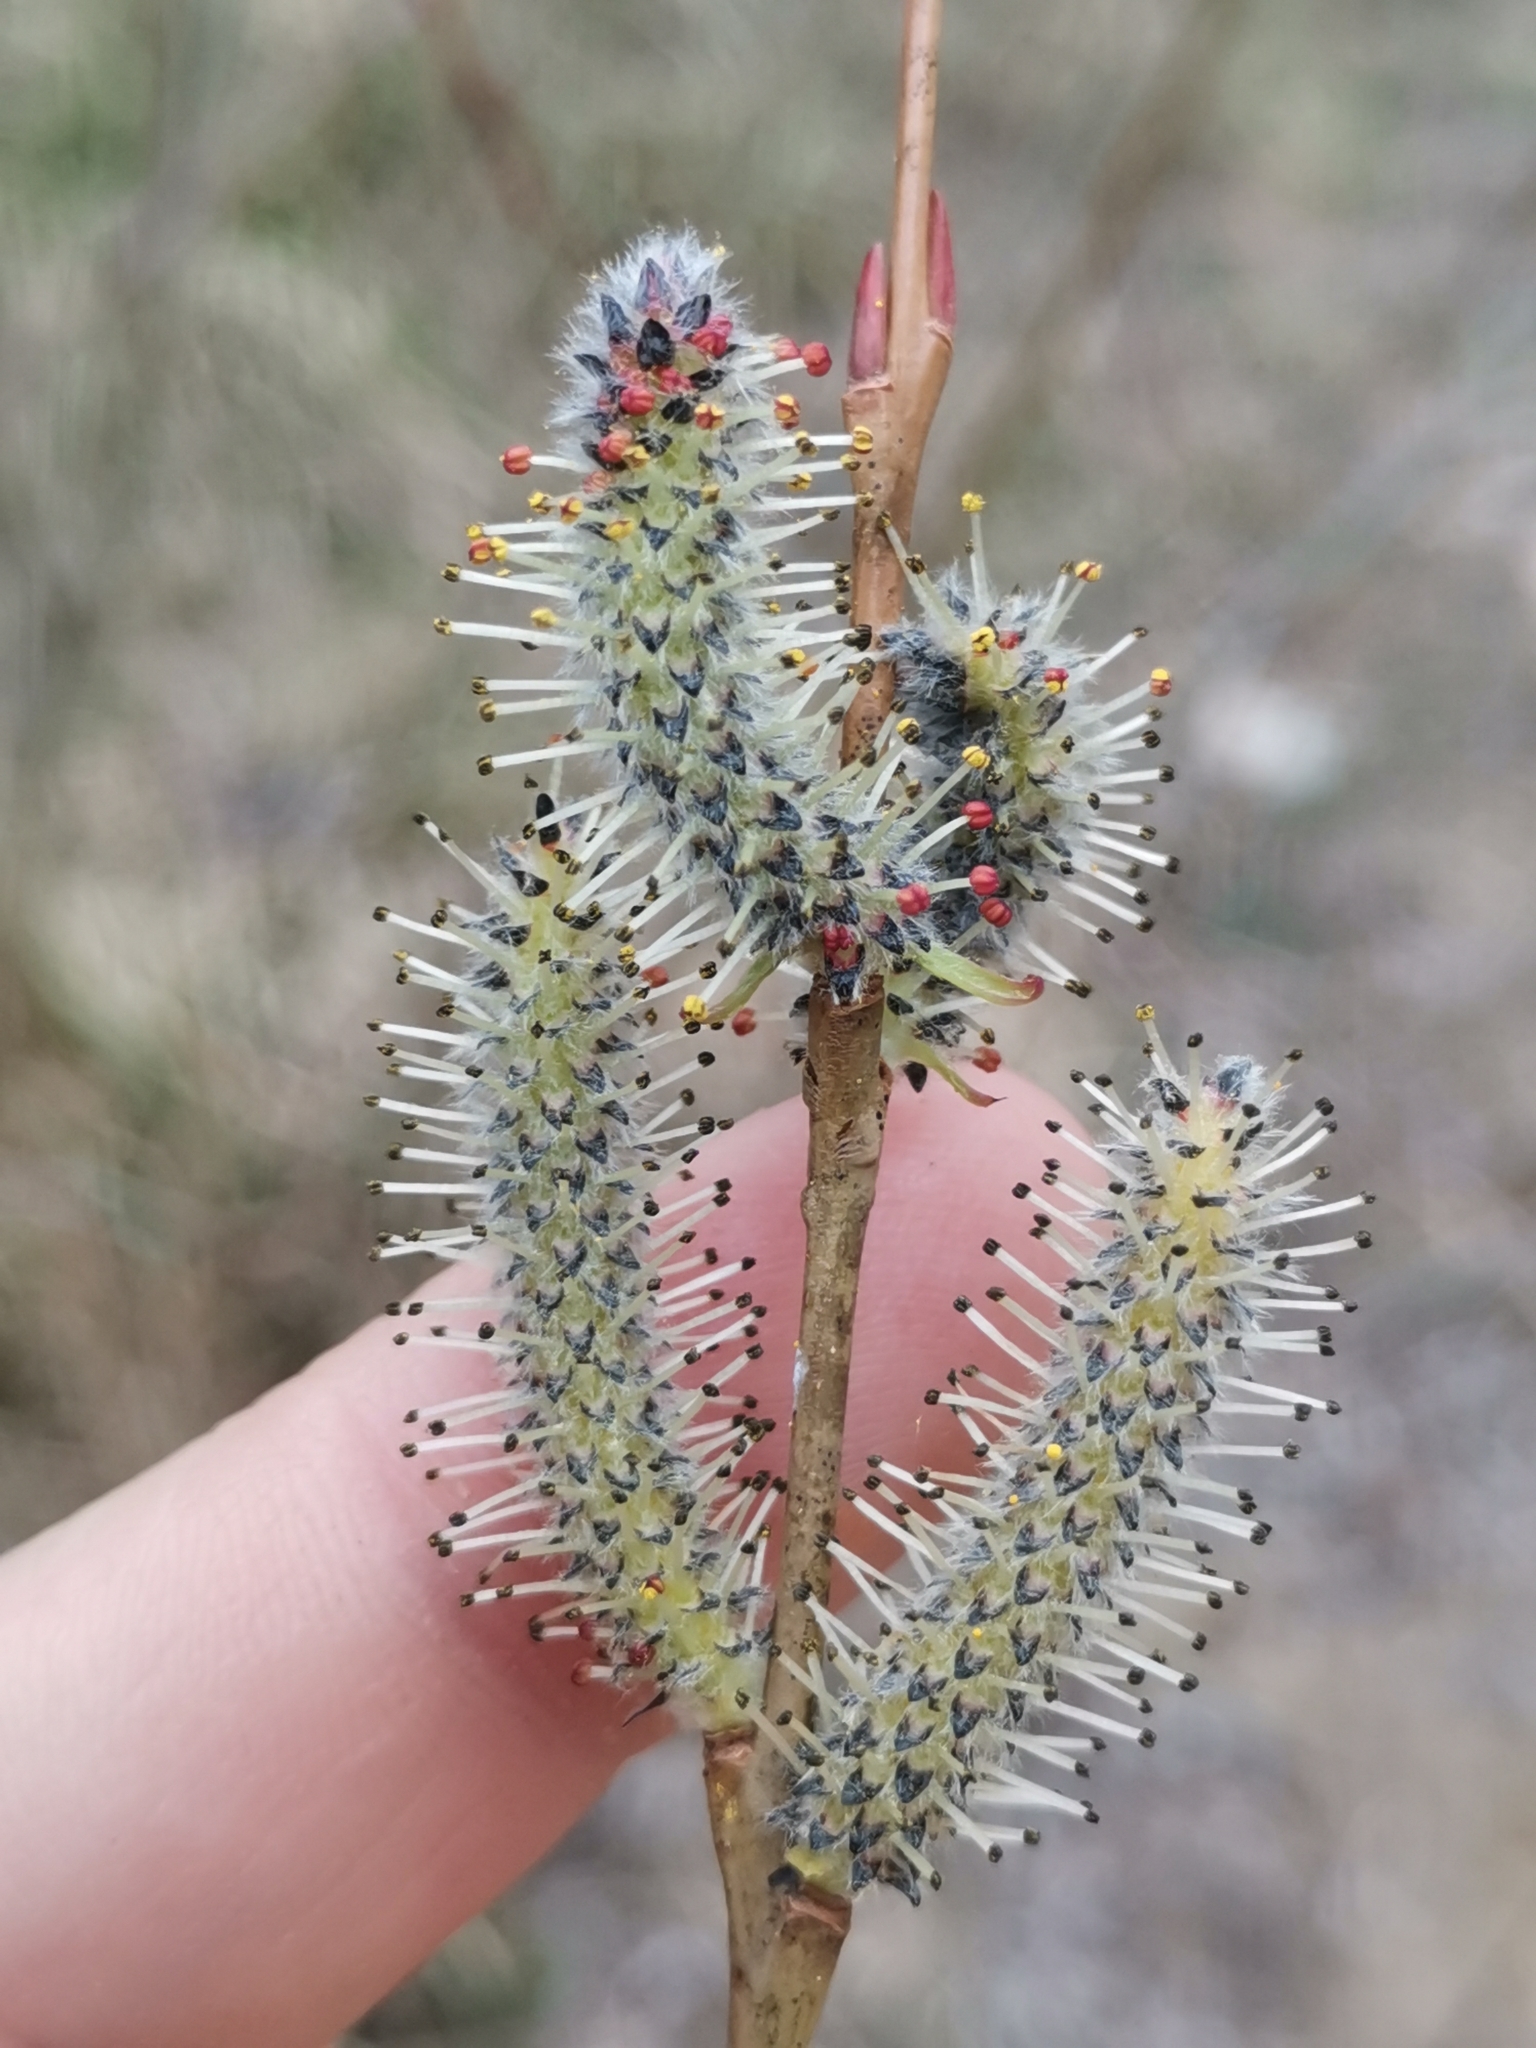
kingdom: Plantae
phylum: Tracheophyta
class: Magnoliopsida
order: Malpighiales
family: Salicaceae
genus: Salix
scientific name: Salix purpurea
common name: Purple willow
